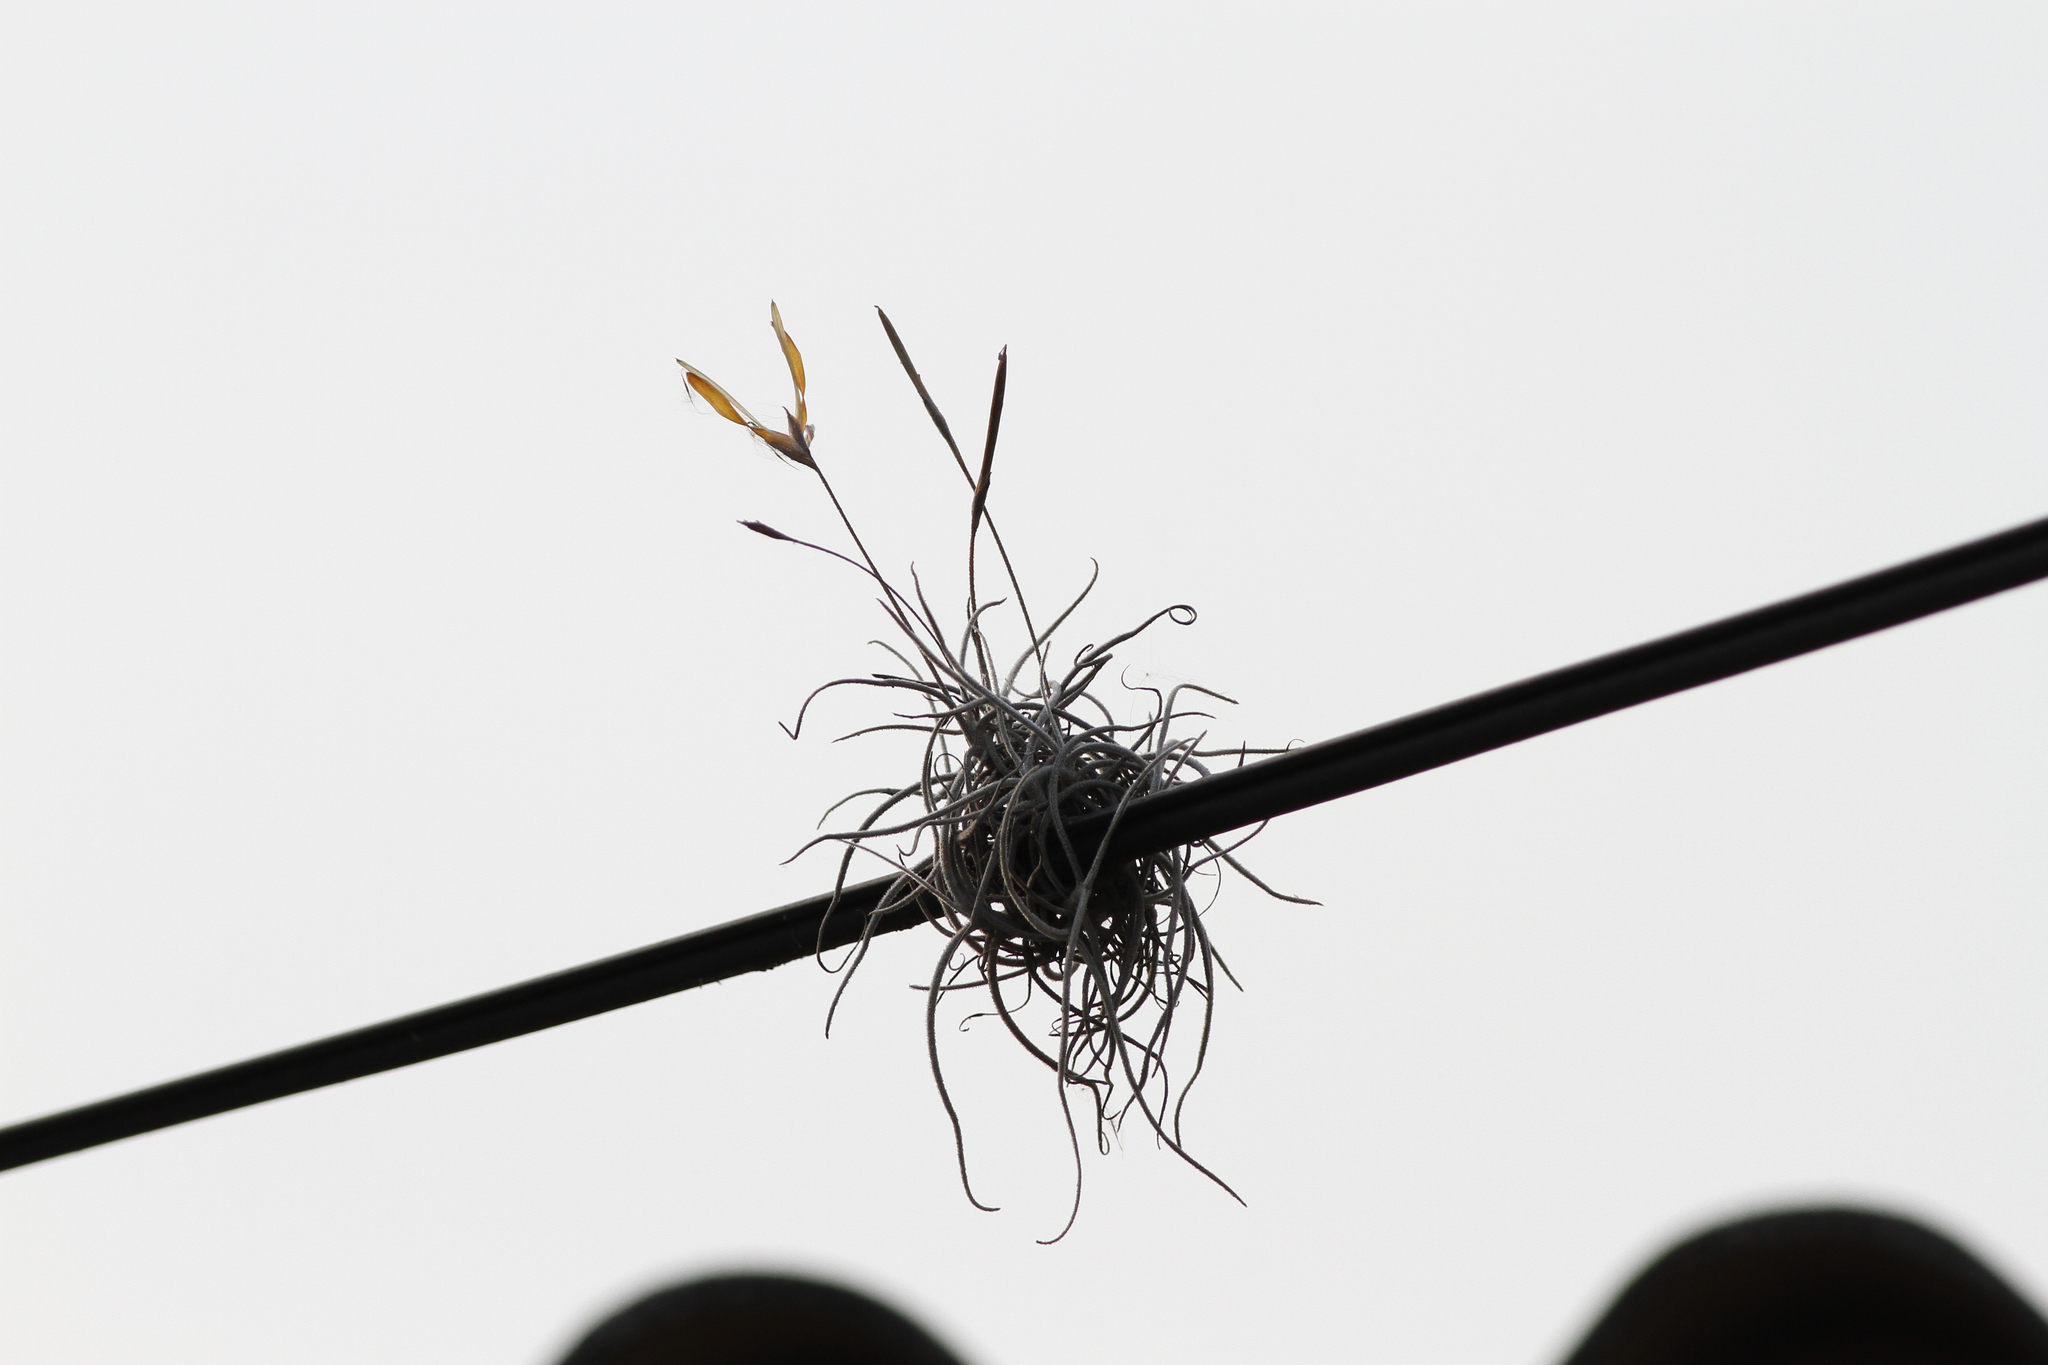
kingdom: Plantae
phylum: Tracheophyta
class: Liliopsida
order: Poales
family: Bromeliaceae
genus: Tillandsia
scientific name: Tillandsia recurvata
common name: Small ballmoss
